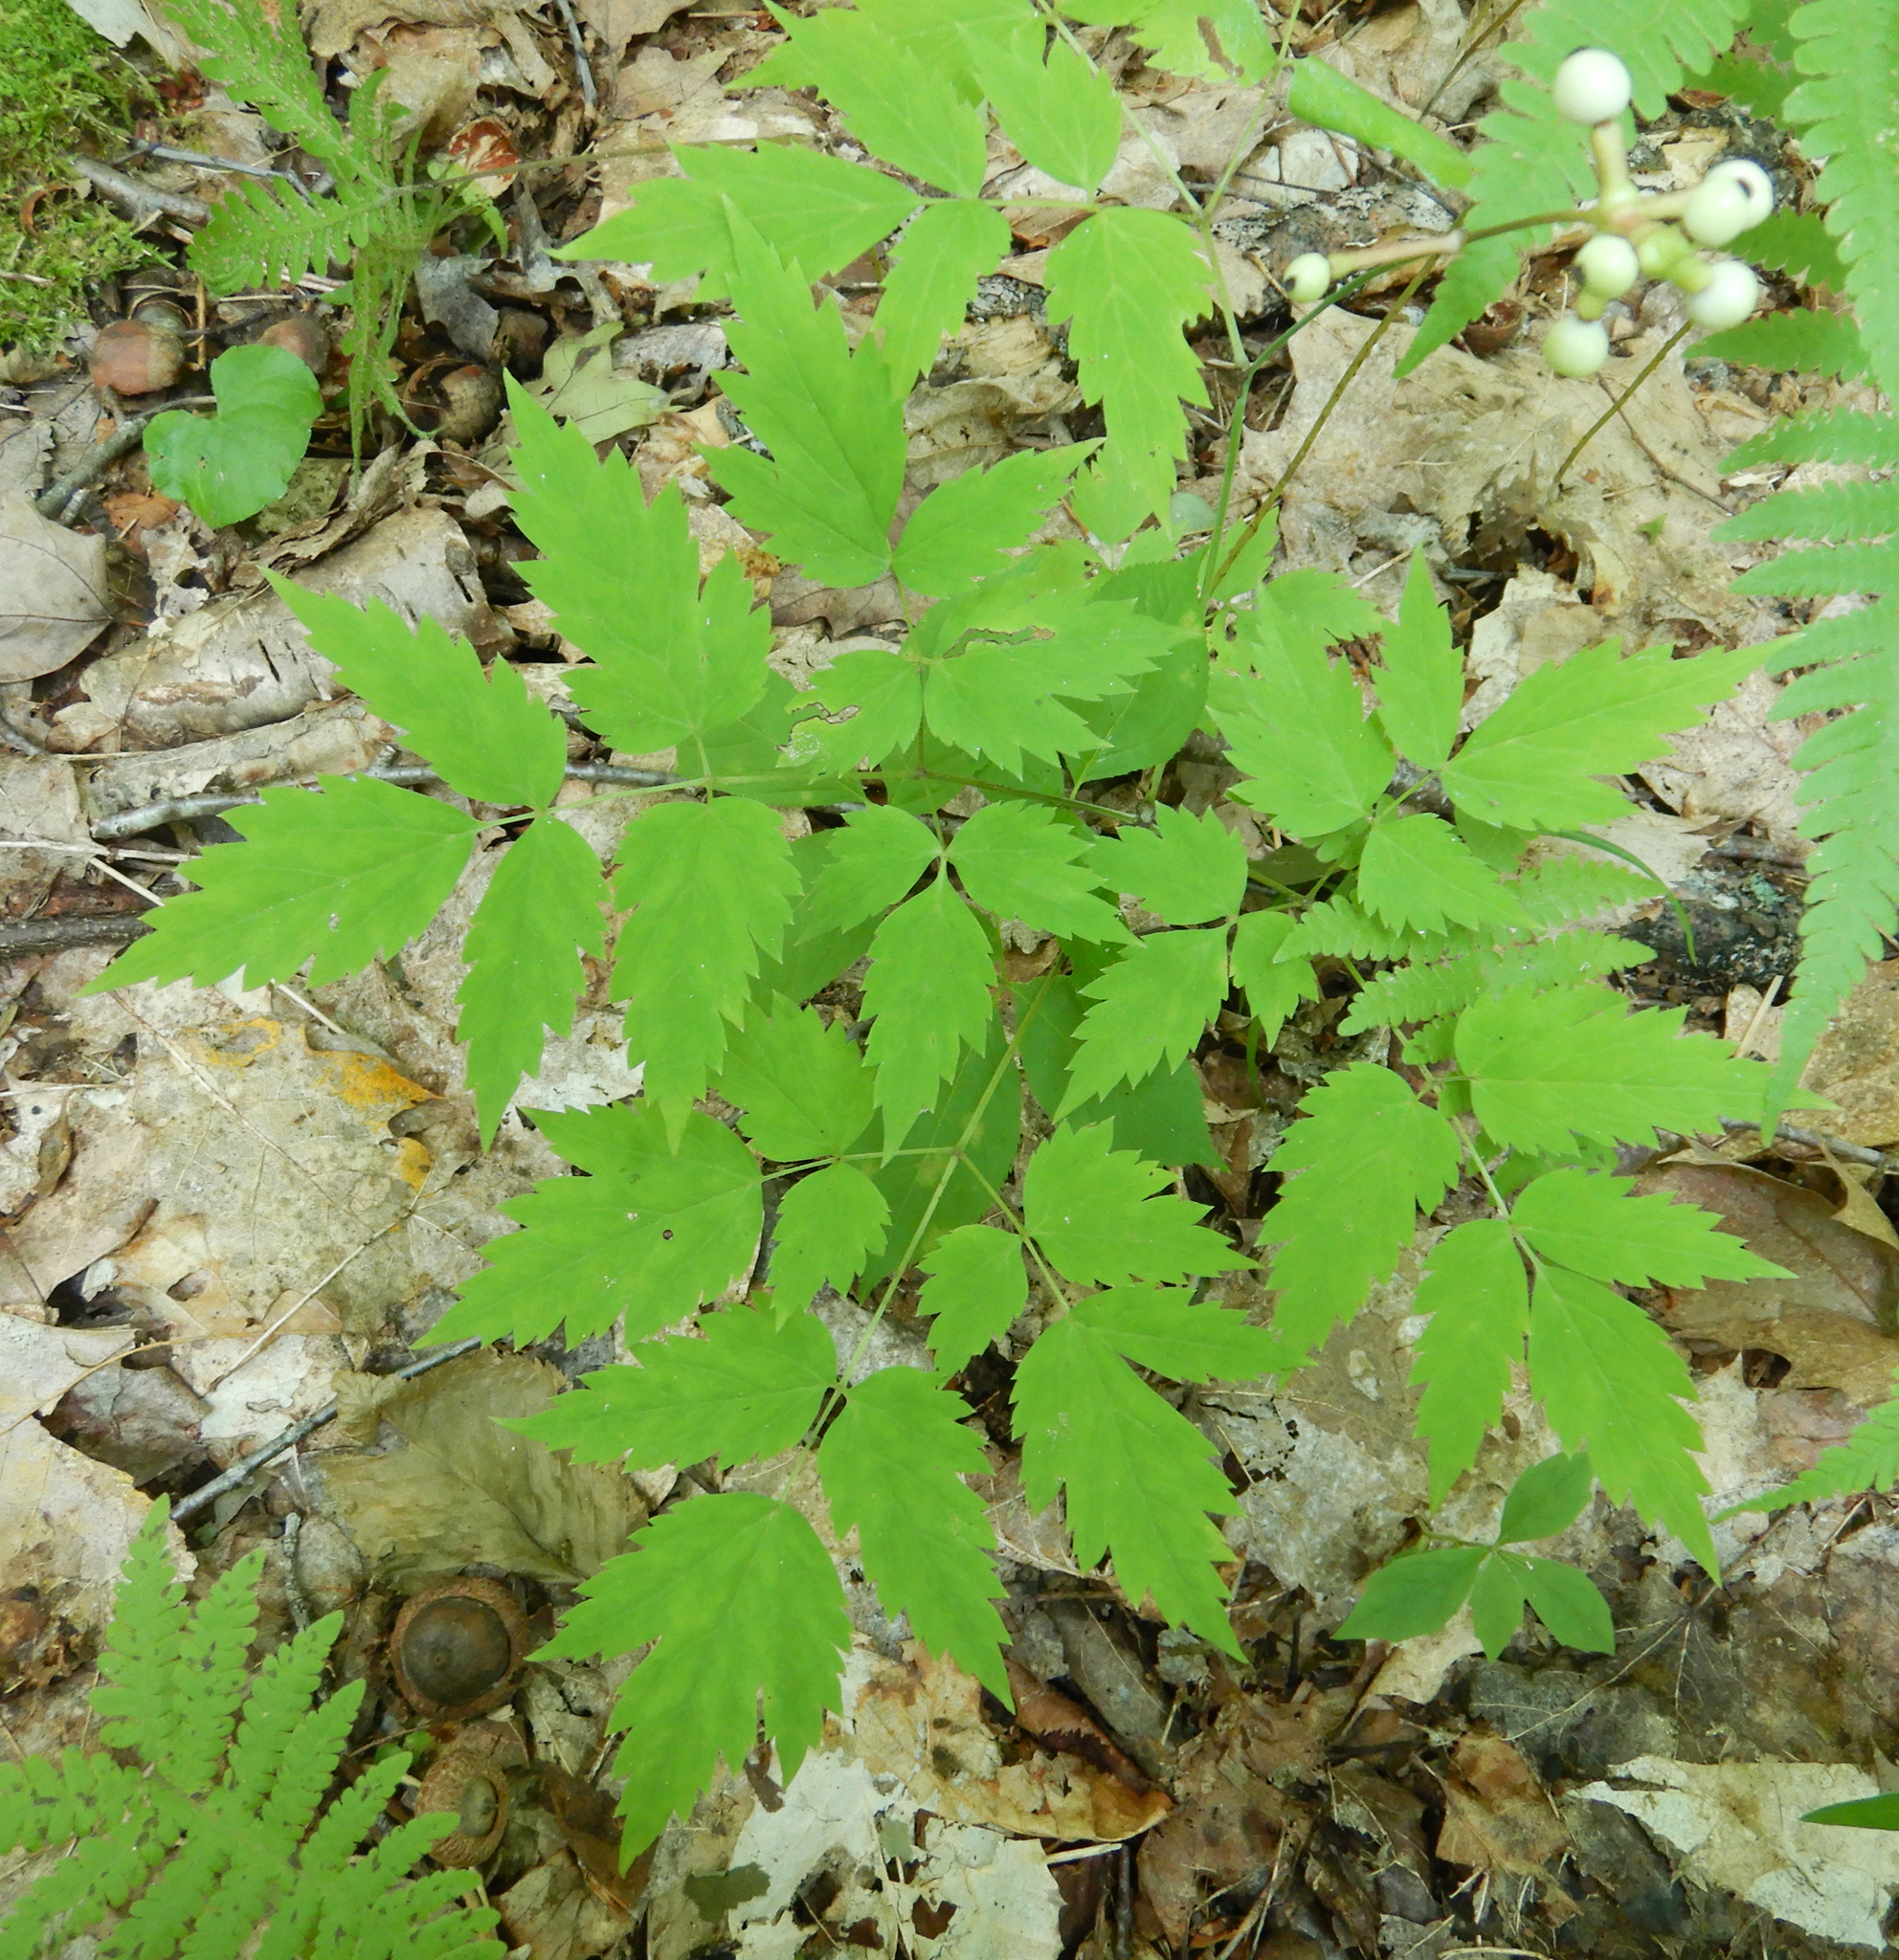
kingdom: Plantae
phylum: Tracheophyta
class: Magnoliopsida
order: Ranunculales
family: Ranunculaceae
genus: Actaea
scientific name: Actaea pachypoda
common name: Doll's-eyes
